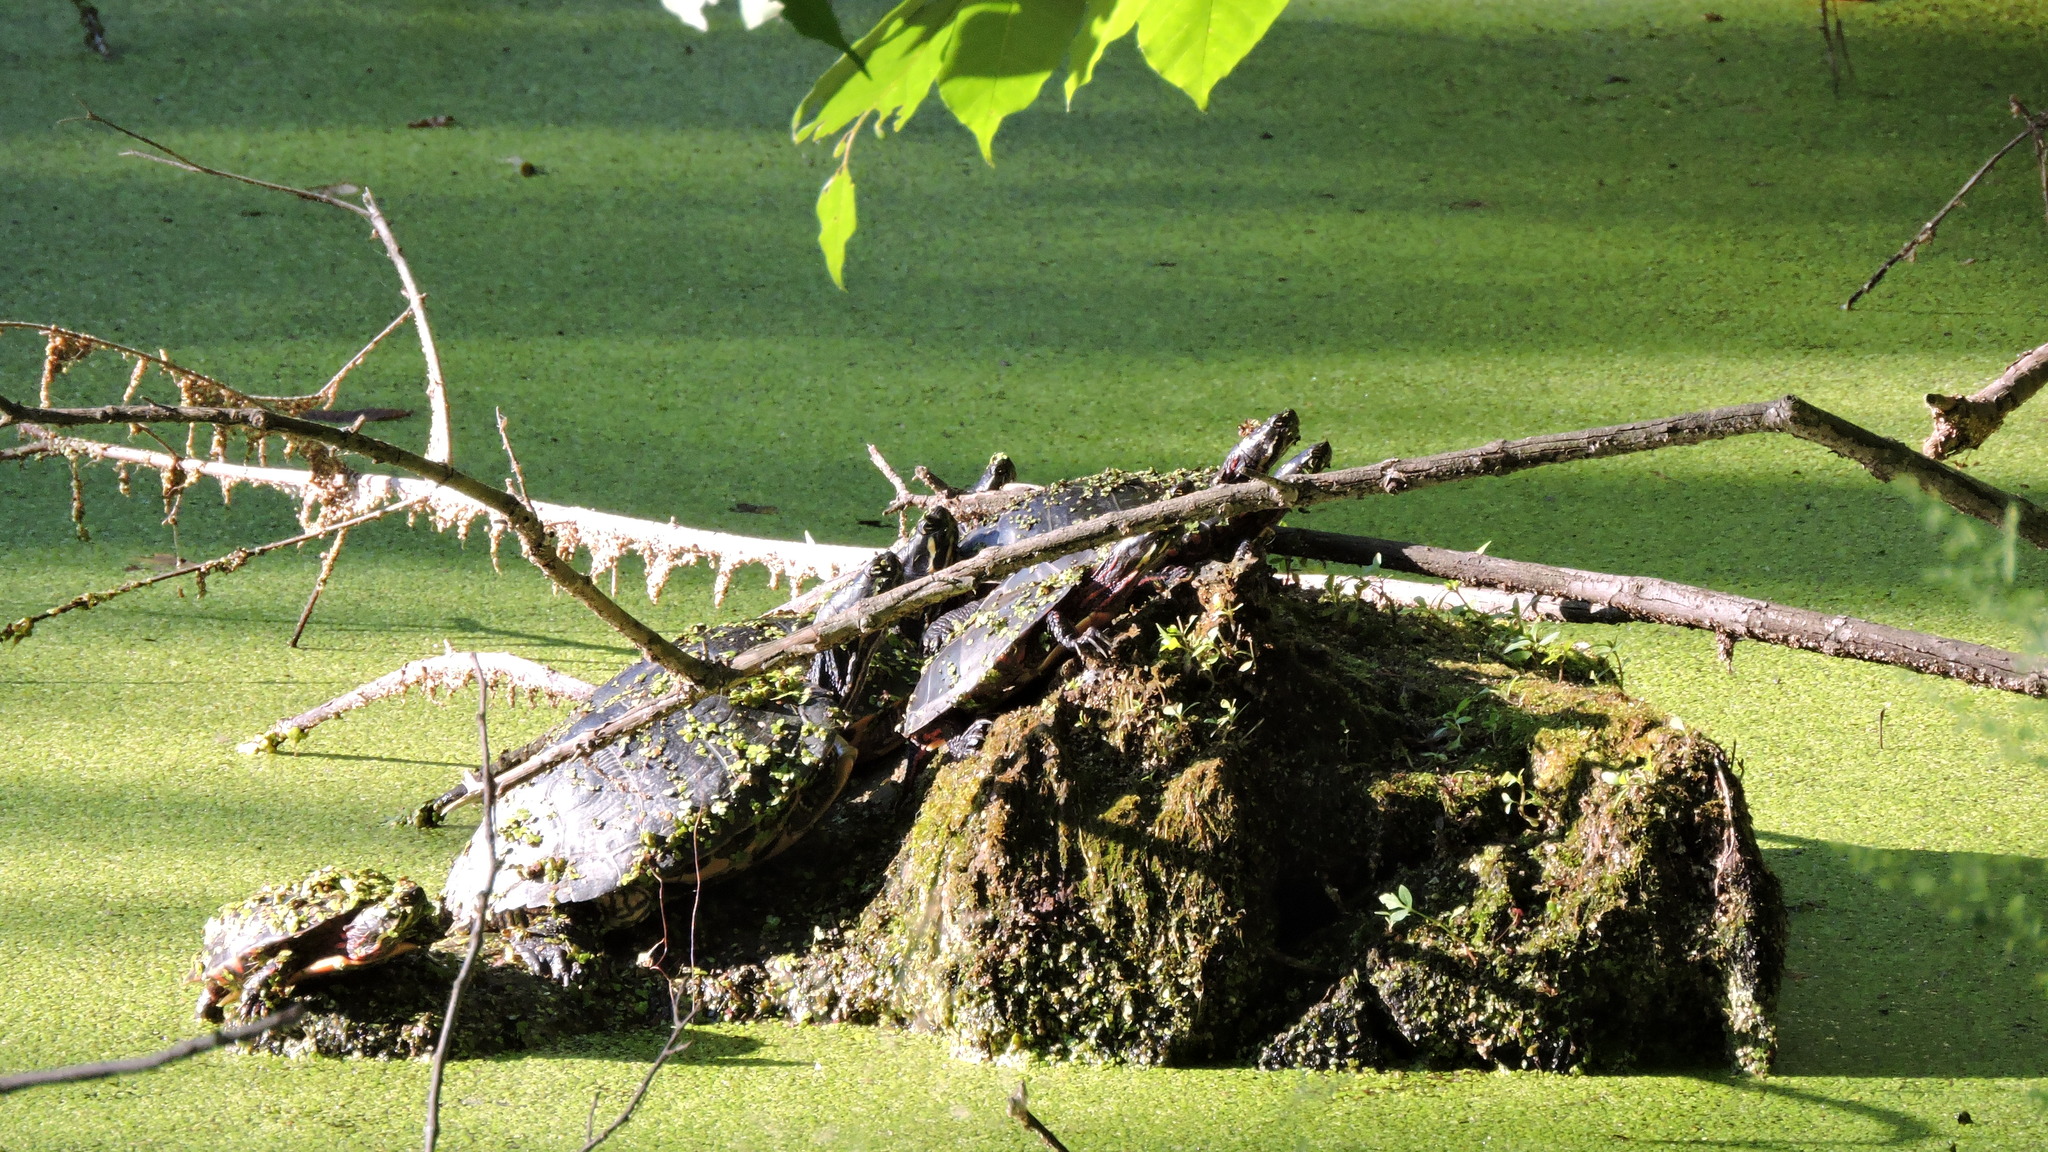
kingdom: Animalia
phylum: Chordata
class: Testudines
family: Emydidae
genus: Chrysemys
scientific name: Chrysemys picta
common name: Painted turtle
